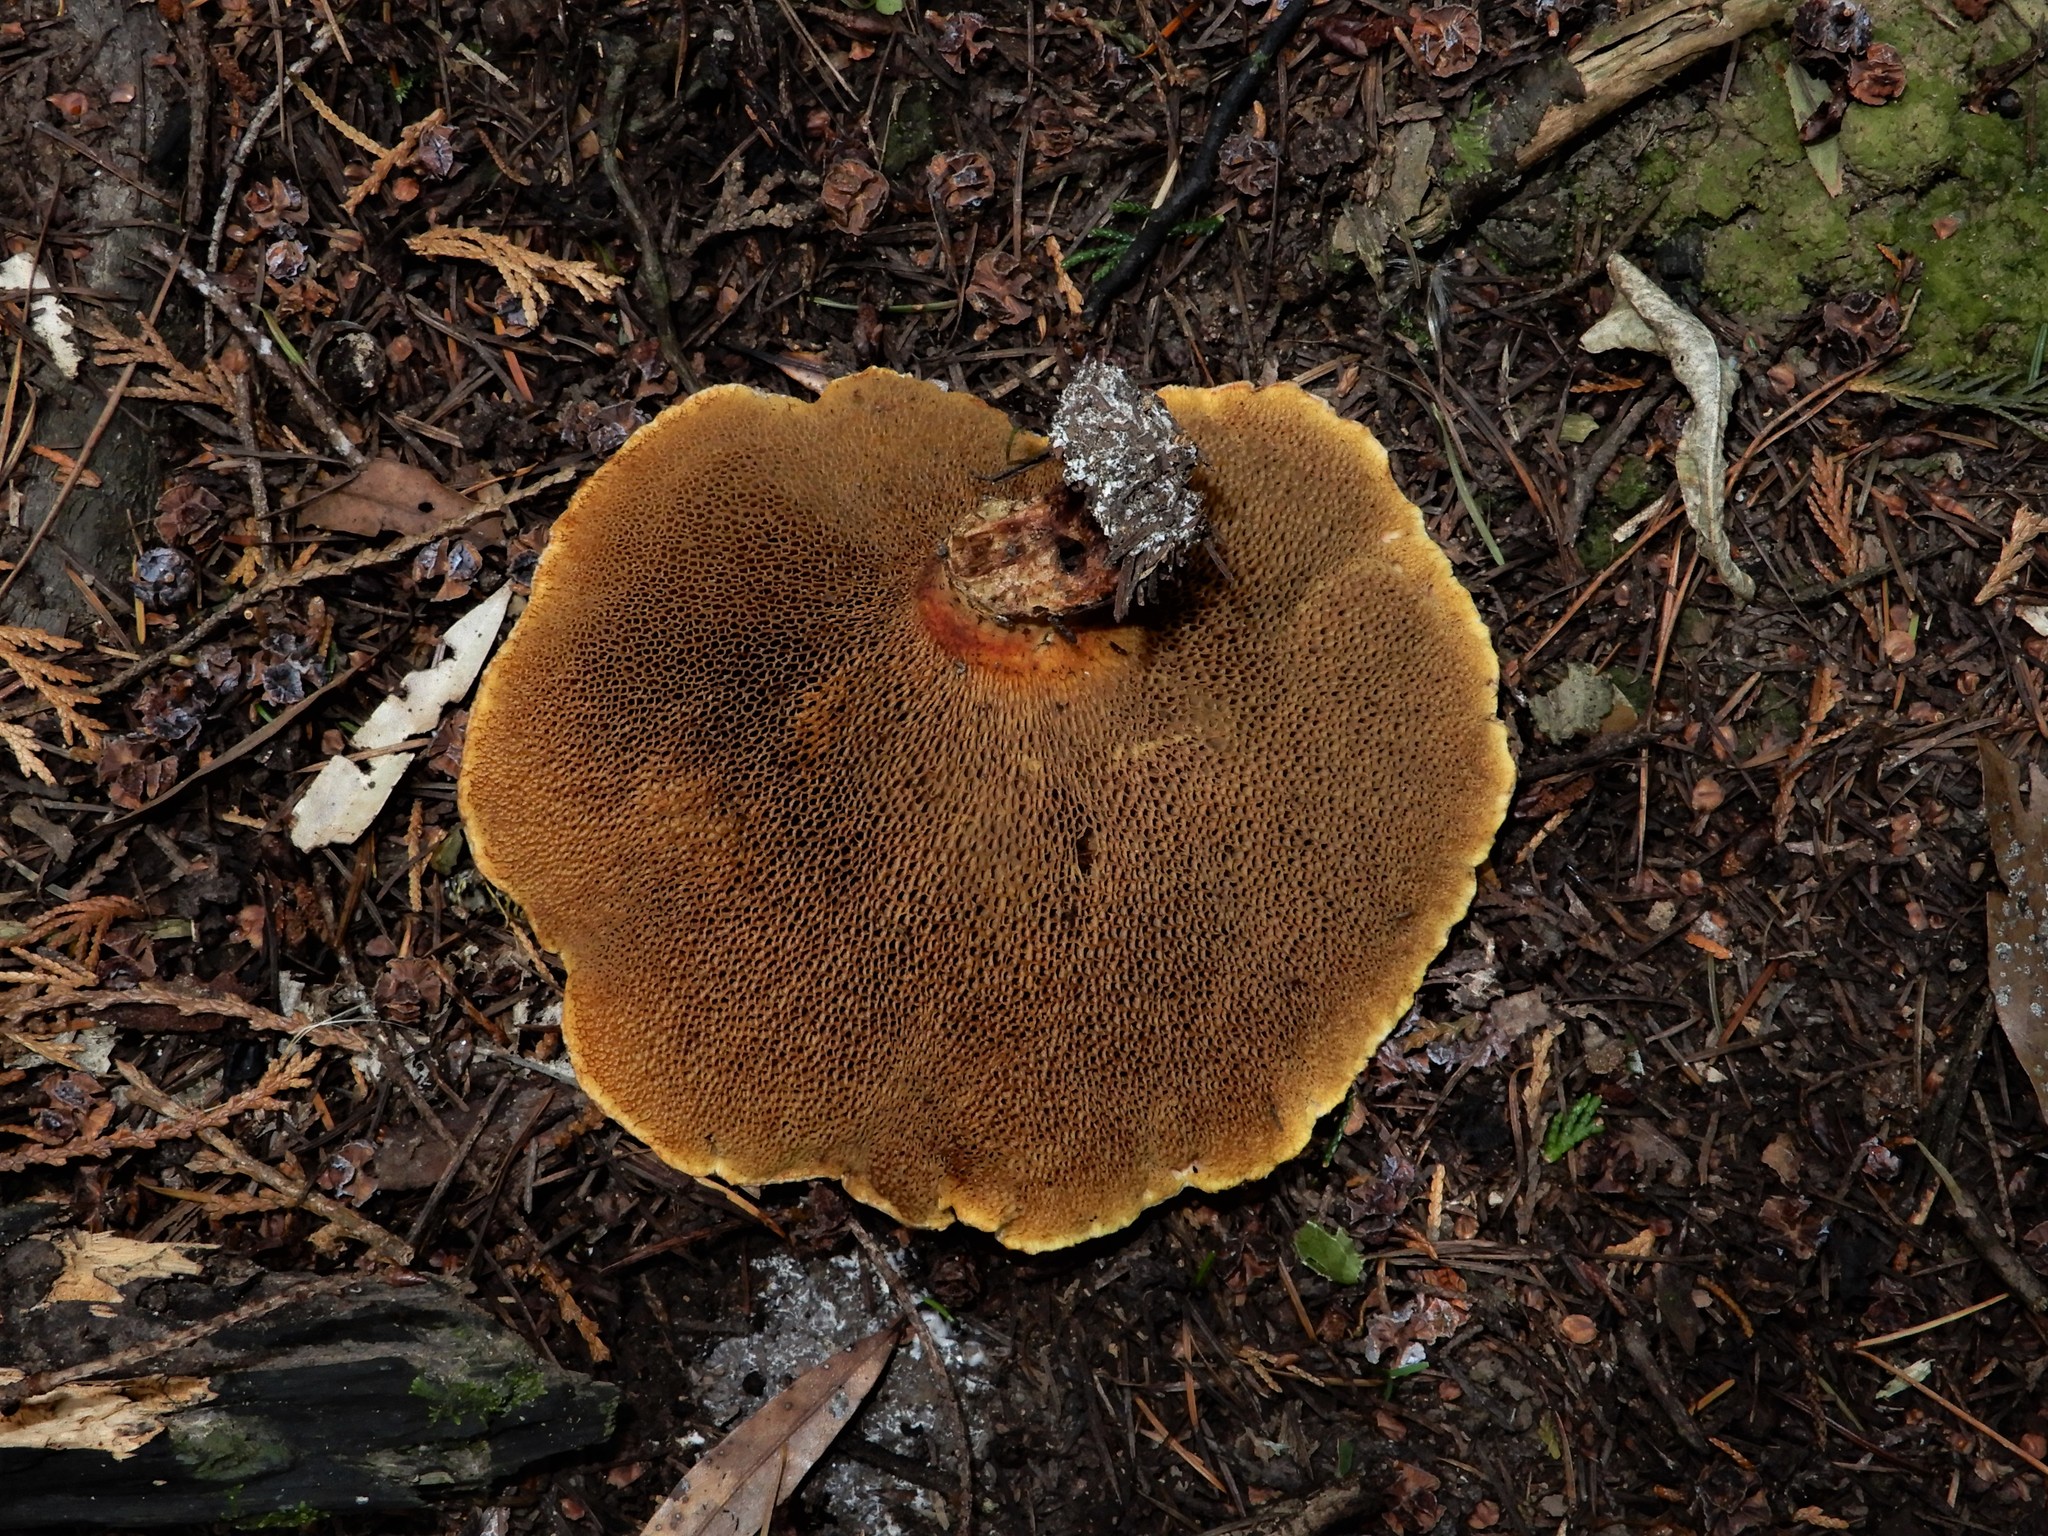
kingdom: Fungi
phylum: Basidiomycota
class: Agaricomycetes
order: Boletales
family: Suillaceae
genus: Suillus
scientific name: Suillus lakei
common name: Western painted suillus
